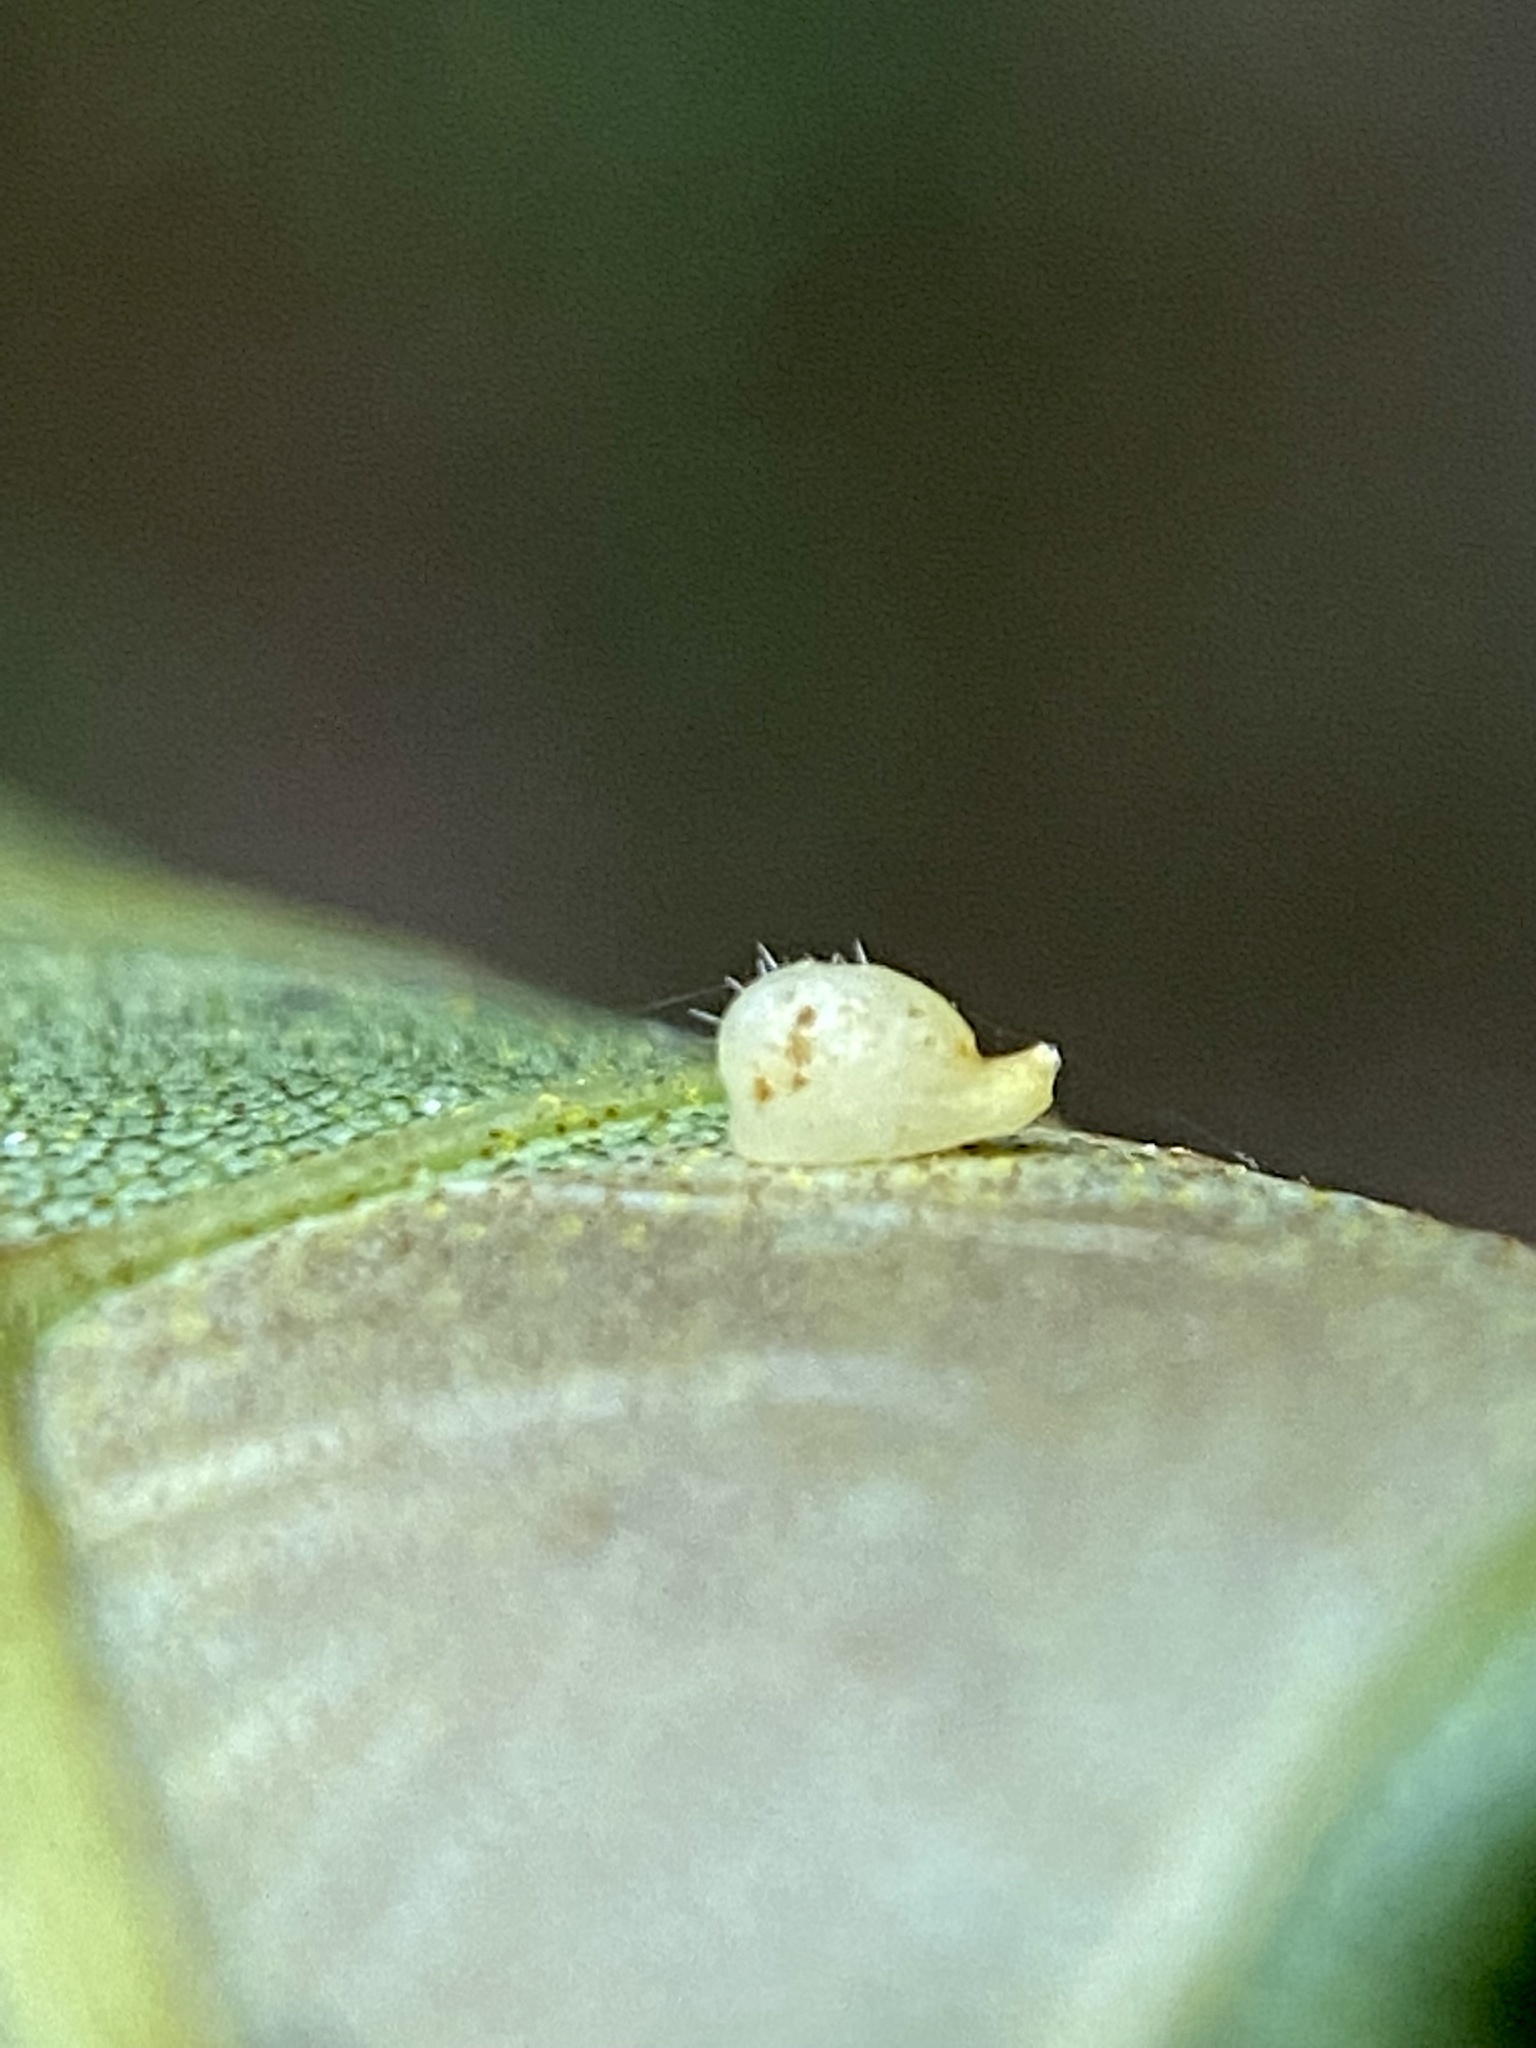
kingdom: Animalia
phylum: Arthropoda
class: Insecta
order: Diptera
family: Cecidomyiidae
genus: Caryomyia
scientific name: Caryomyia eumaris
